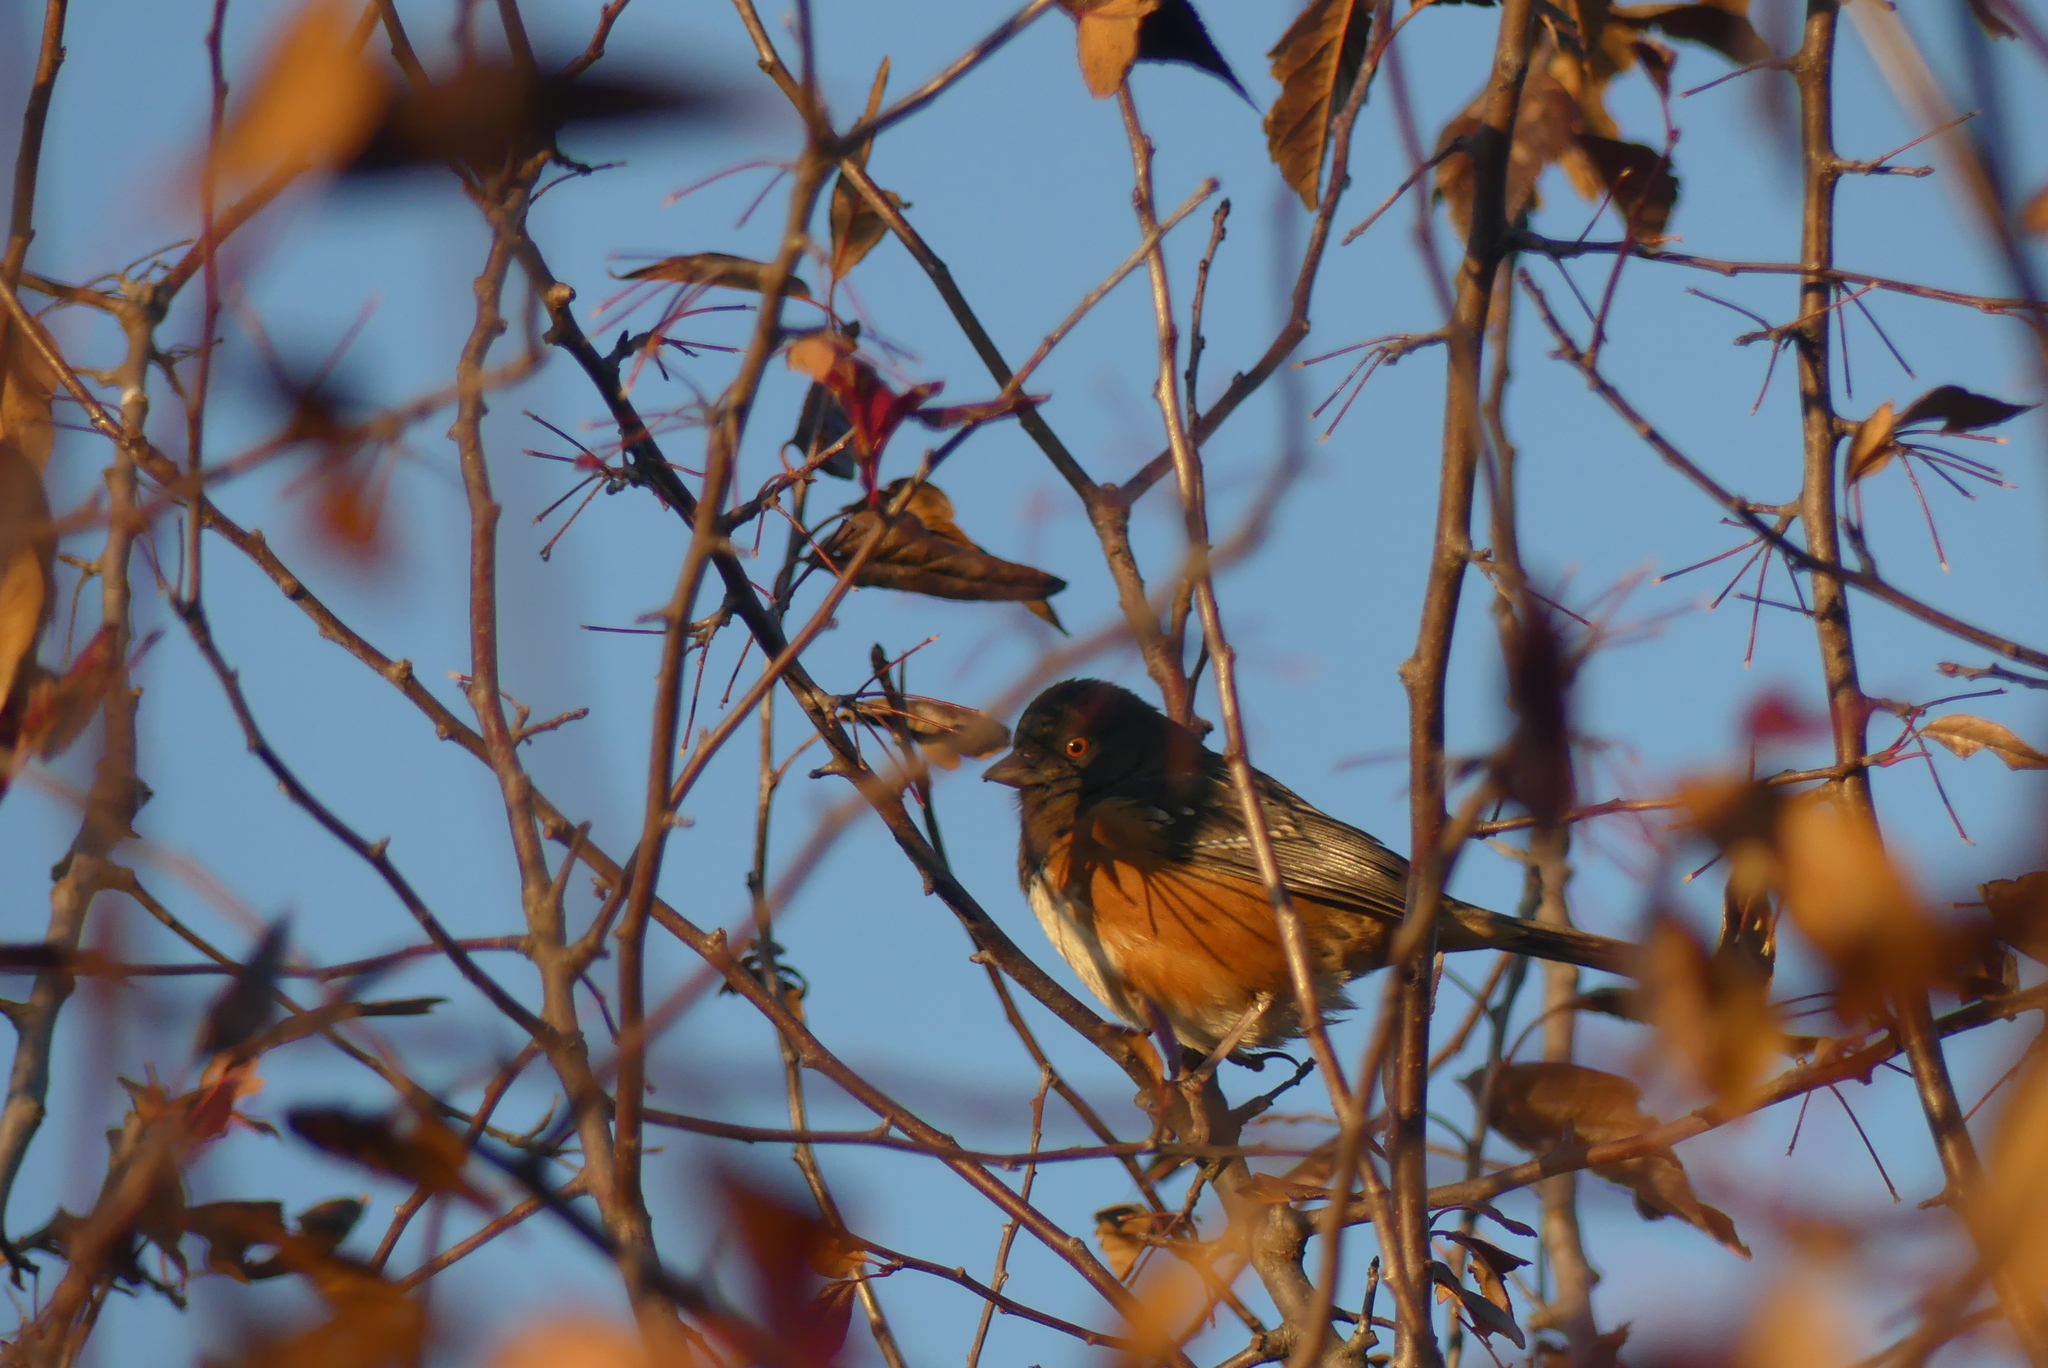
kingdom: Animalia
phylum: Chordata
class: Aves
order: Passeriformes
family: Passerellidae
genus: Pipilo
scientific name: Pipilo maculatus
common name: Spotted towhee
